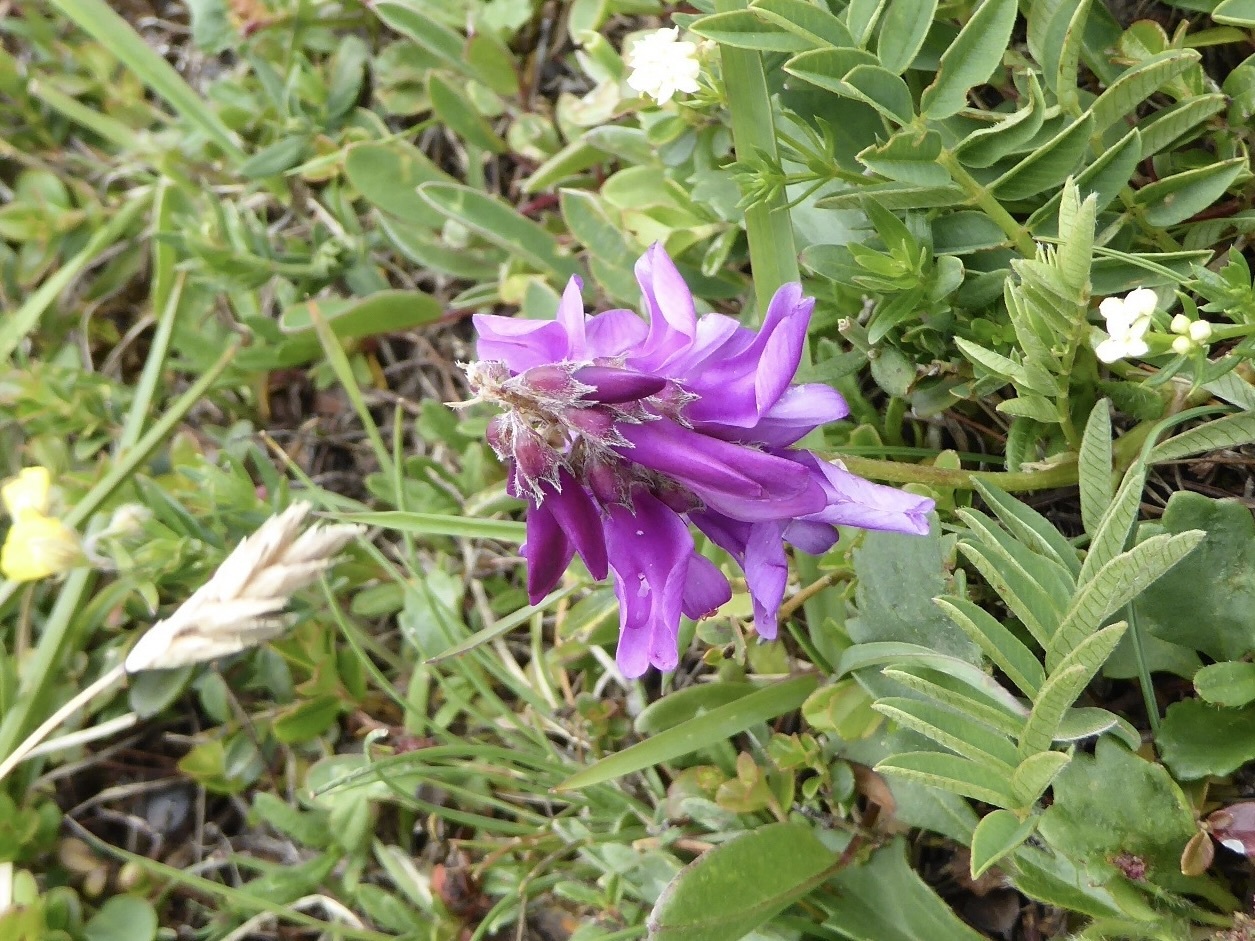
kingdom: Plantae
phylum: Tracheophyta
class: Magnoliopsida
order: Fabales
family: Fabaceae
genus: Hedysarum
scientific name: Hedysarum hedysaroides
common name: Alpine french-honeysuckle
